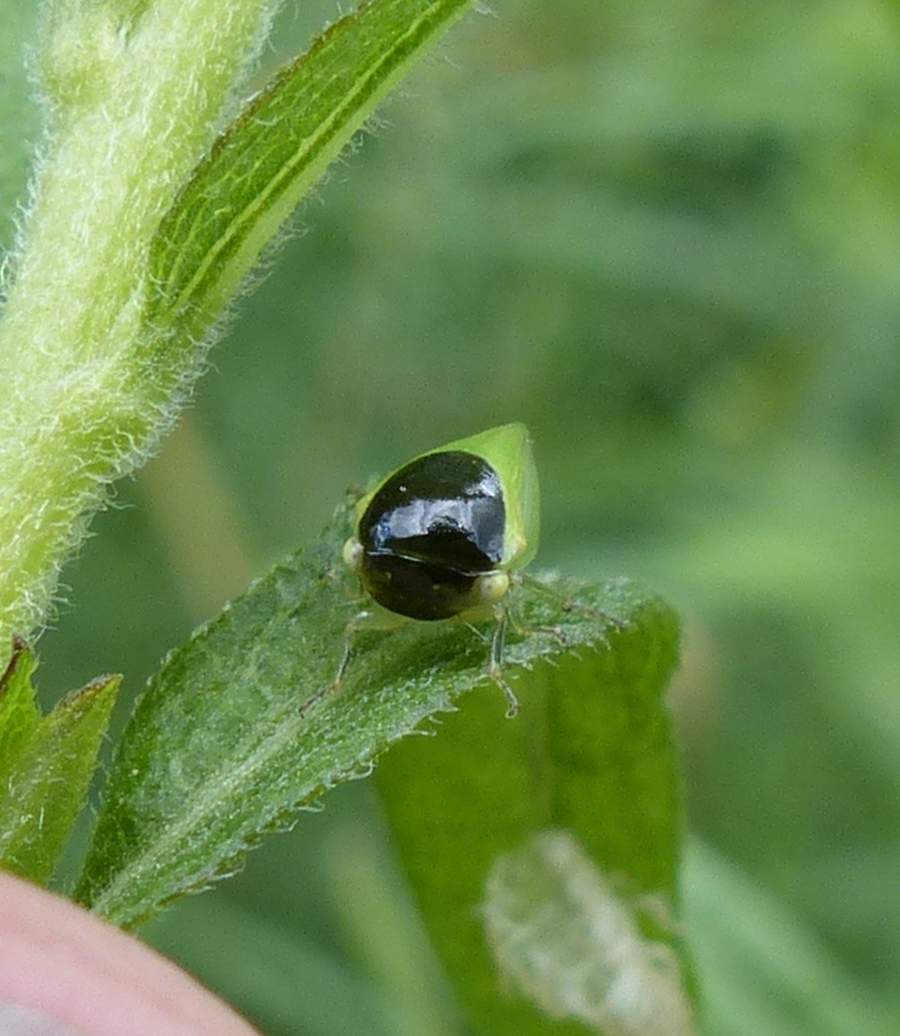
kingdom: Animalia
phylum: Arthropoda
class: Insecta
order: Hemiptera
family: Membracidae
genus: Acutalis
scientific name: Acutalis tartarea
